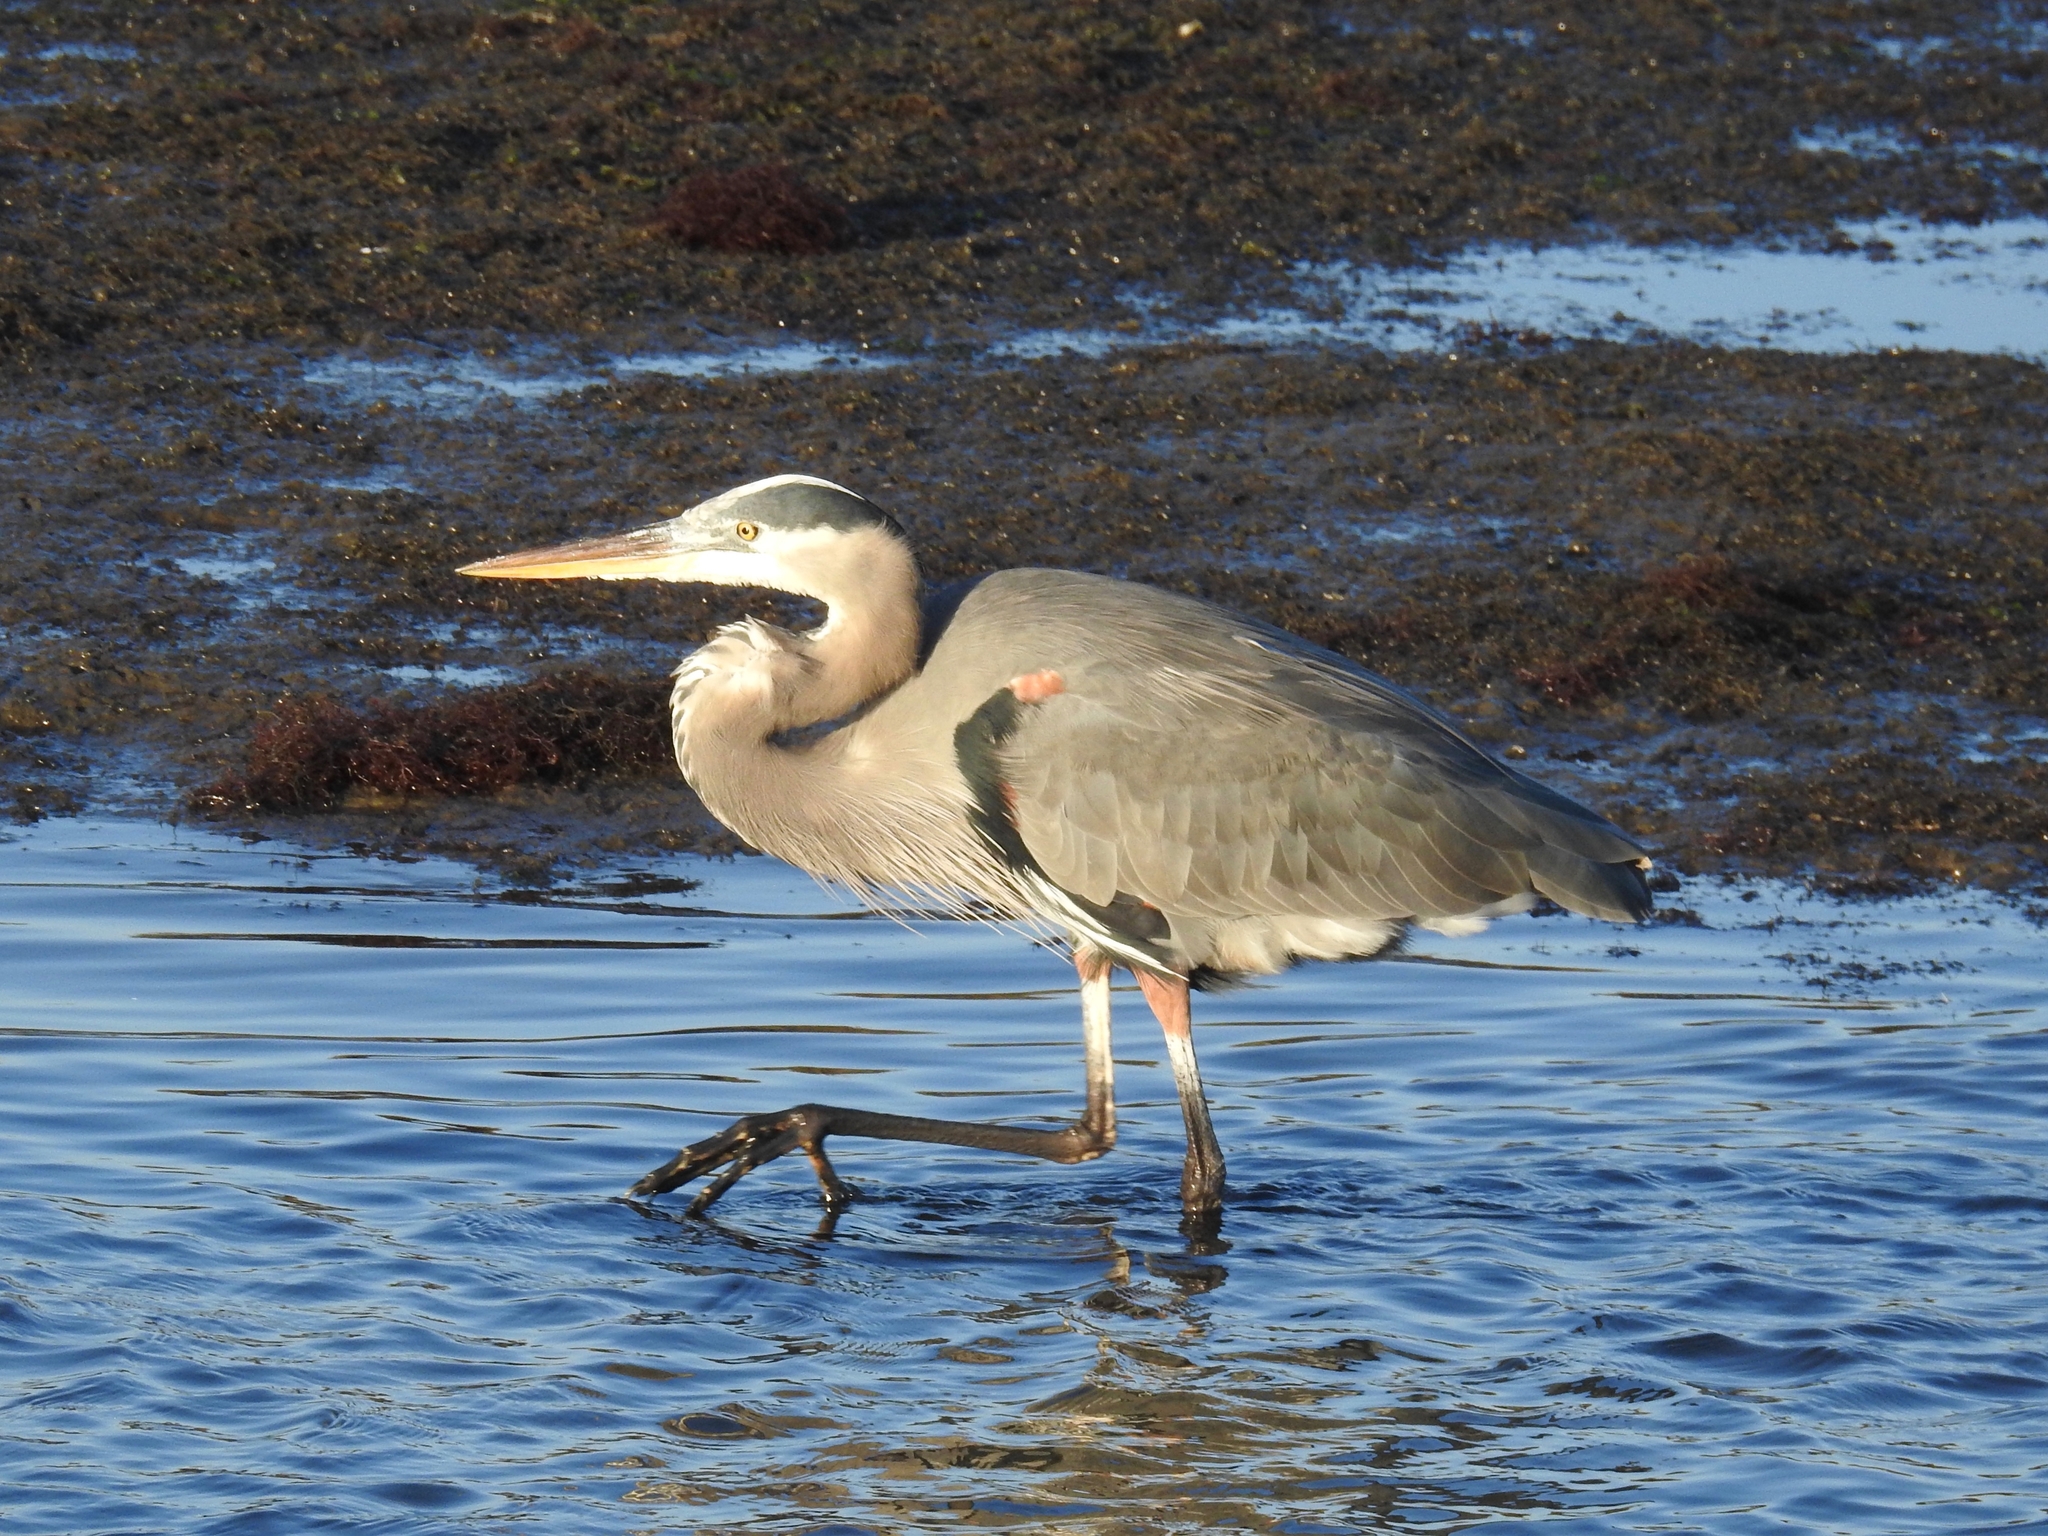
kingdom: Animalia
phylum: Chordata
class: Aves
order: Pelecaniformes
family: Ardeidae
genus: Ardea
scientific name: Ardea herodias
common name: Great blue heron
